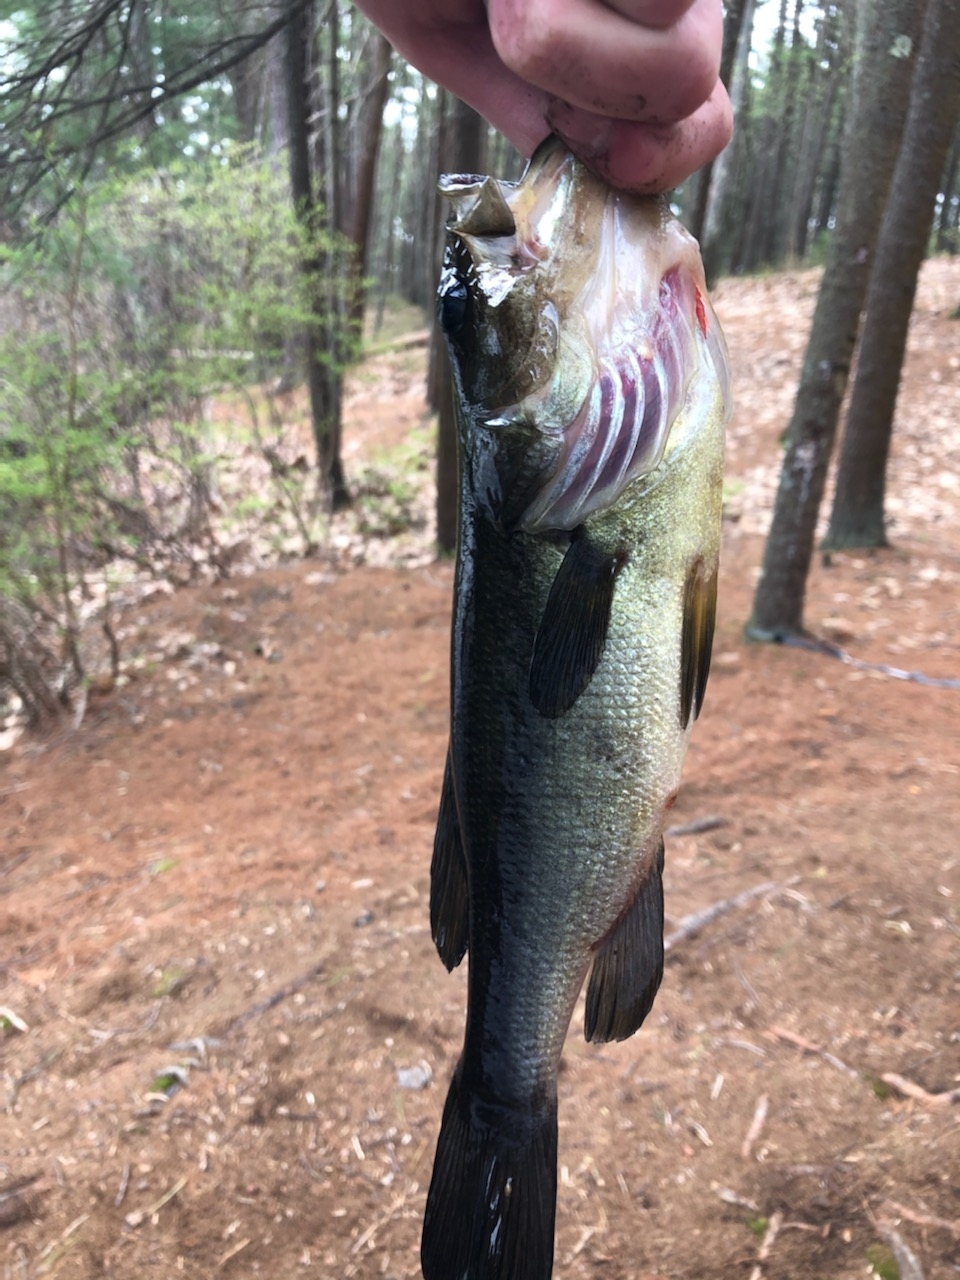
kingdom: Animalia
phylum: Chordata
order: Perciformes
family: Centrarchidae
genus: Micropterus
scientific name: Micropterus
